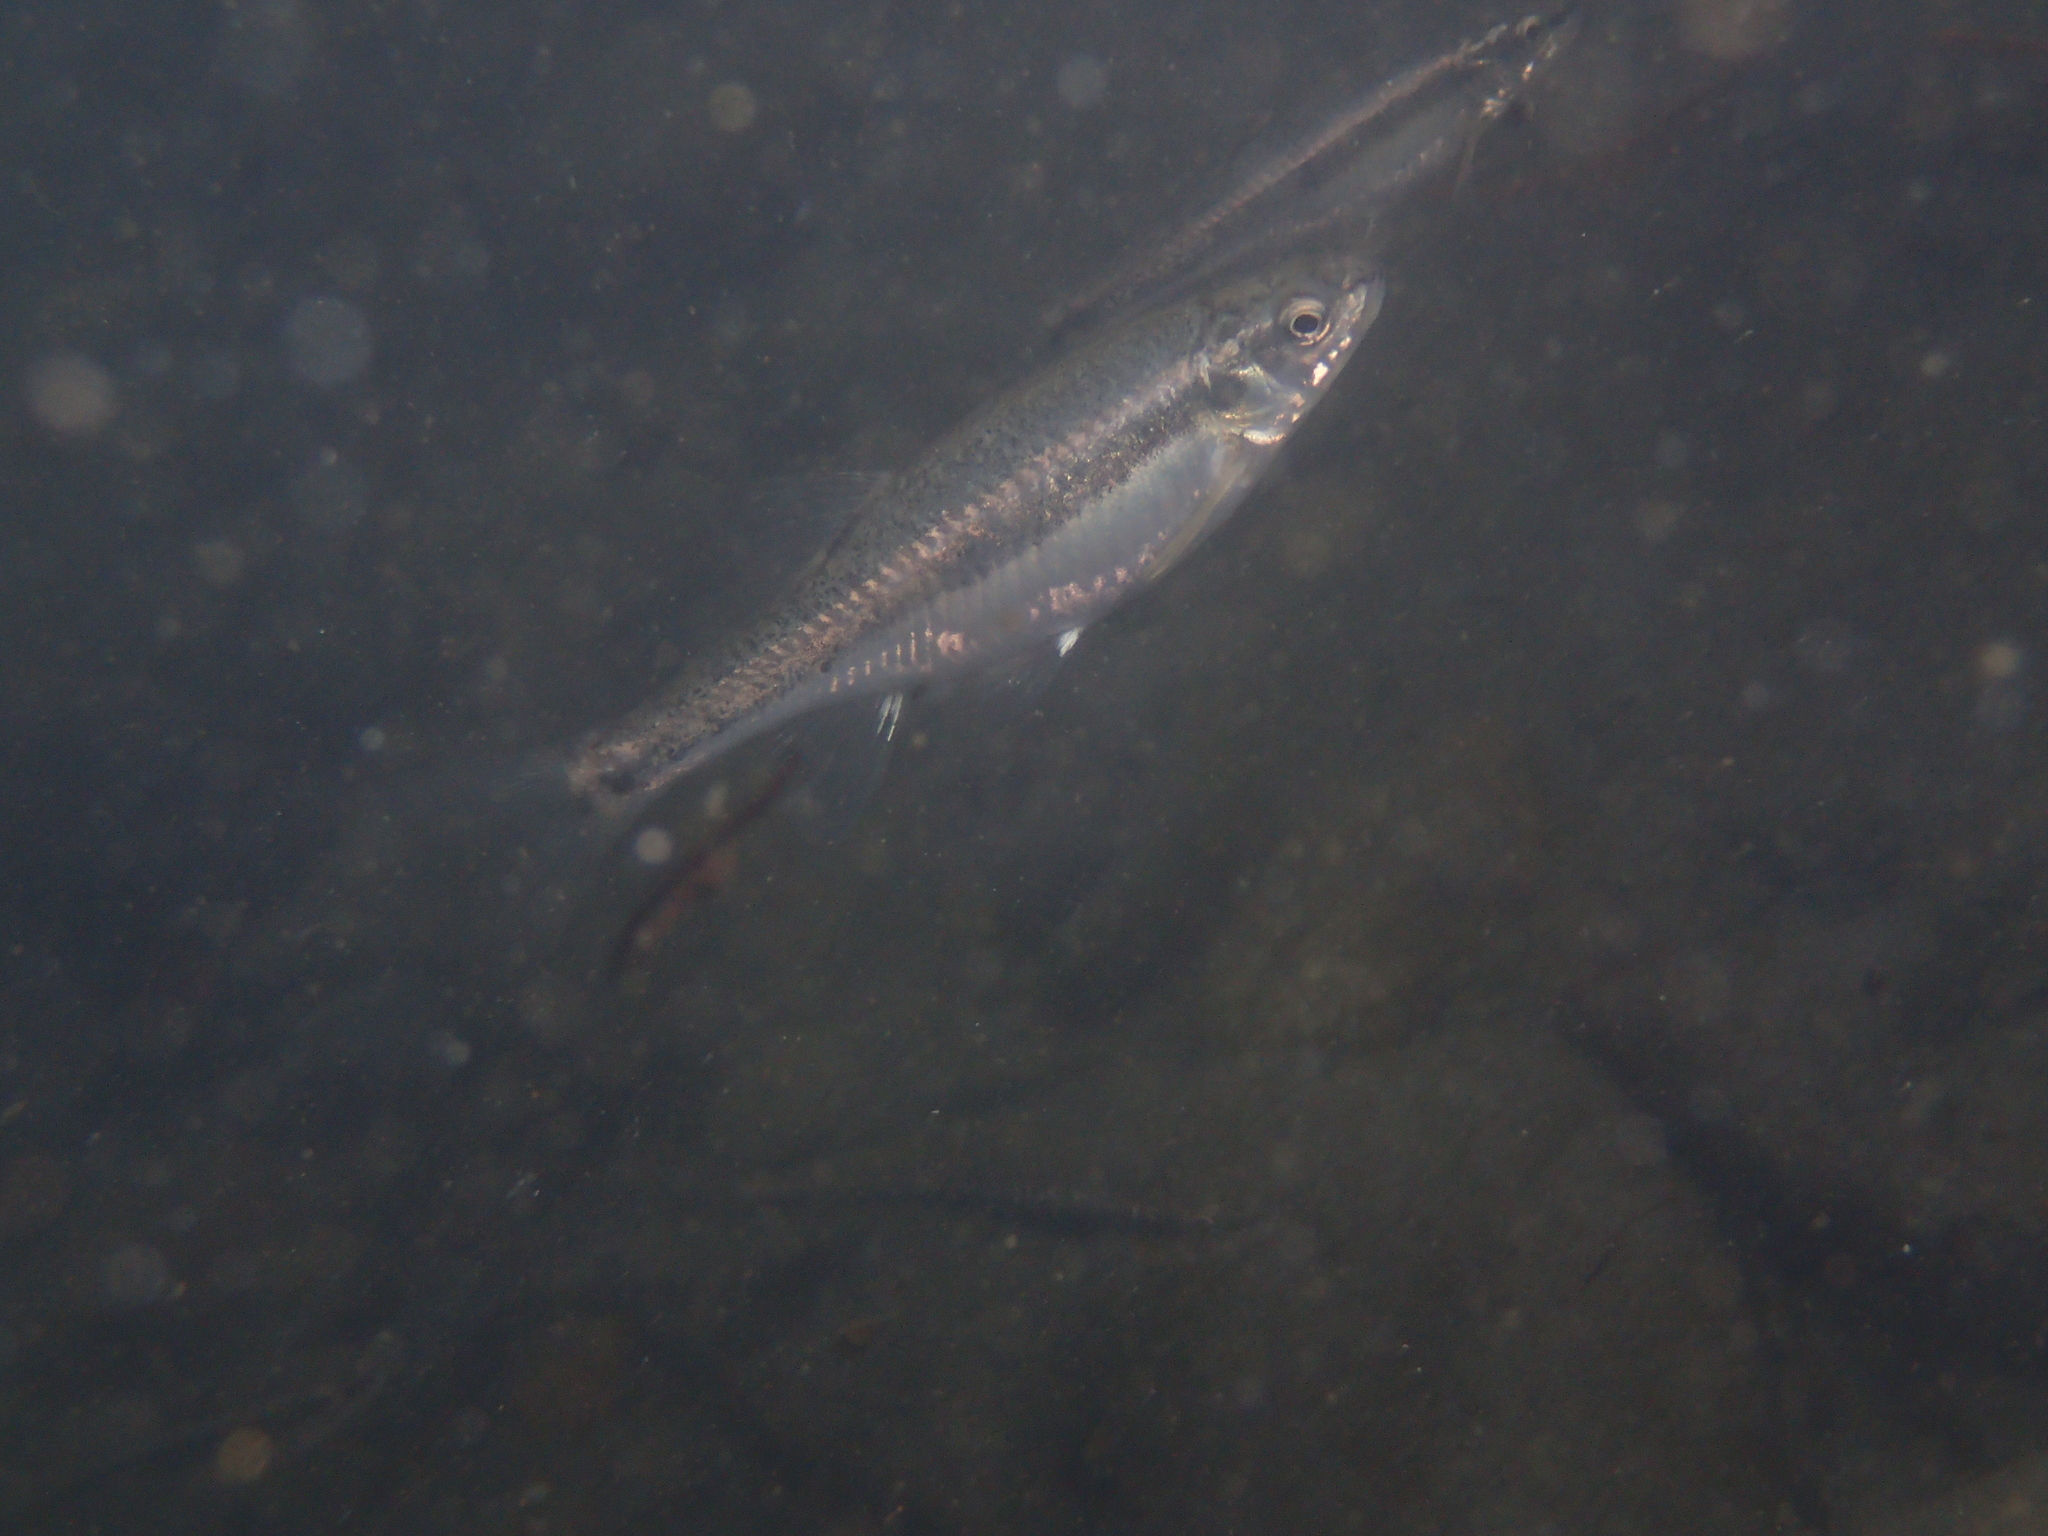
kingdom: Animalia
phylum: Chordata
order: Cypriniformes
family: Cyprinidae
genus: Phoxinus
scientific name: Phoxinus bigerri
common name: Adour minnow
